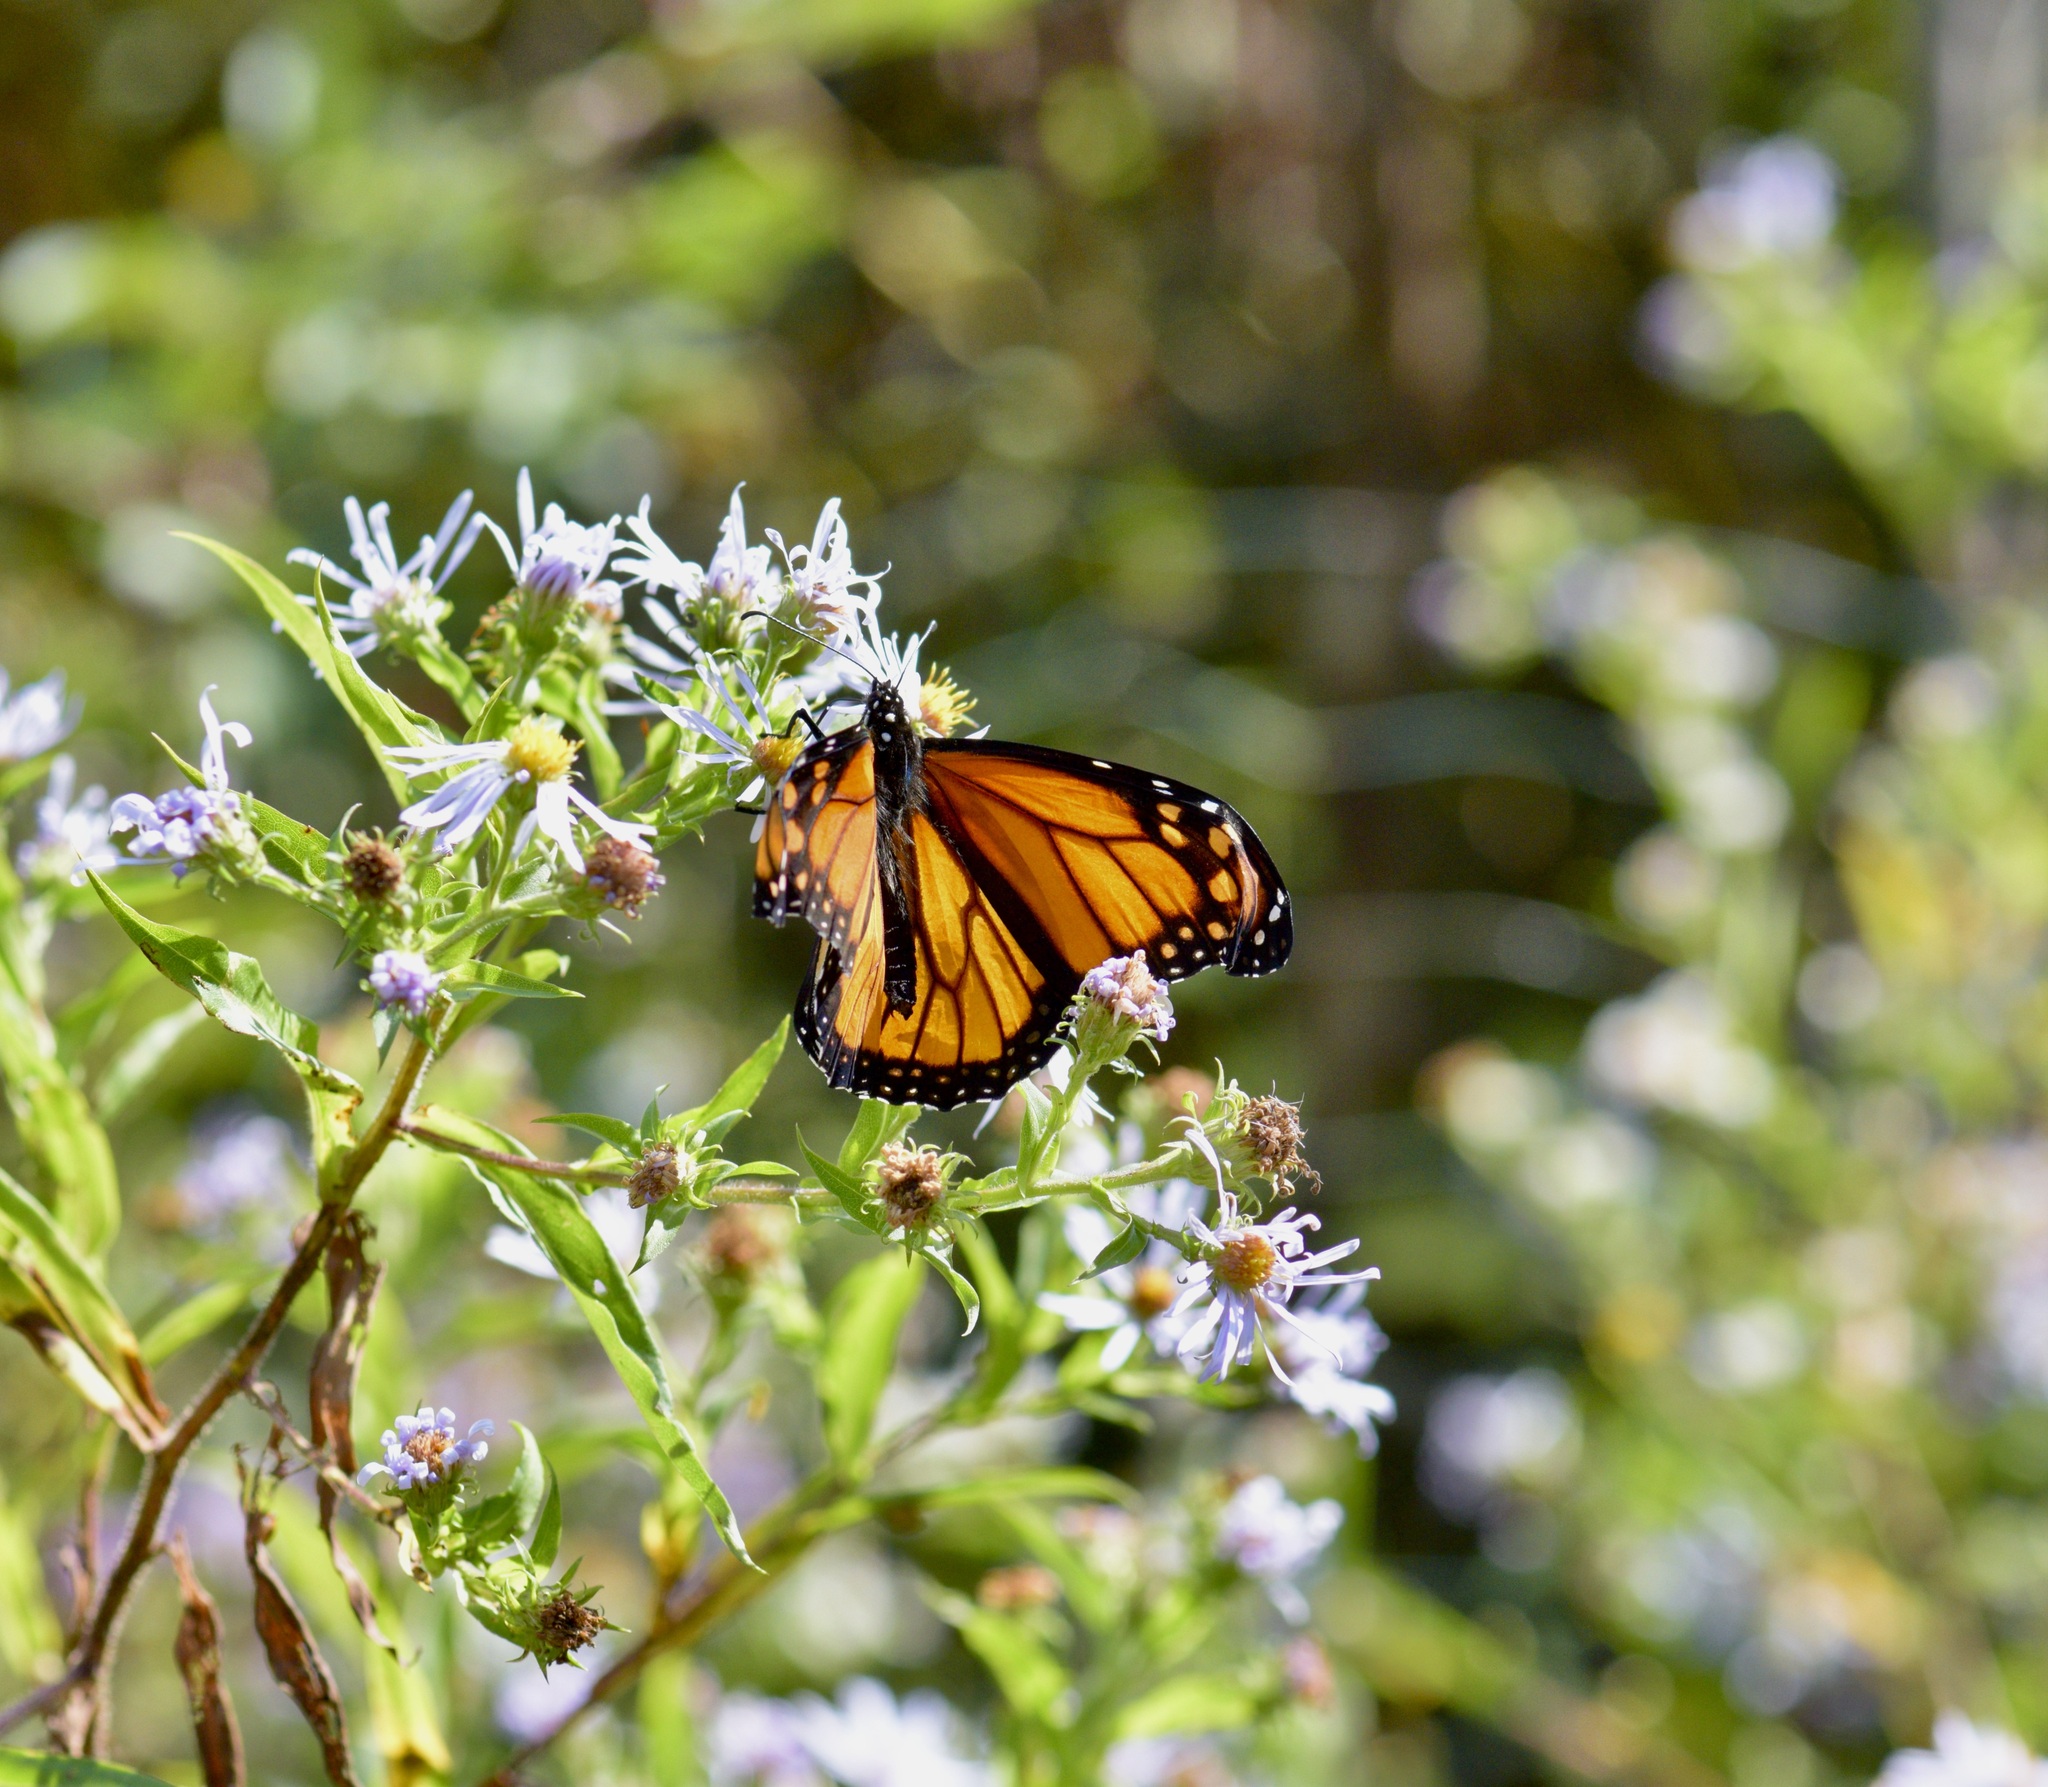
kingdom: Animalia
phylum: Arthropoda
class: Insecta
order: Lepidoptera
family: Nymphalidae
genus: Danaus
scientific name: Danaus plexippus
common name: Monarch
